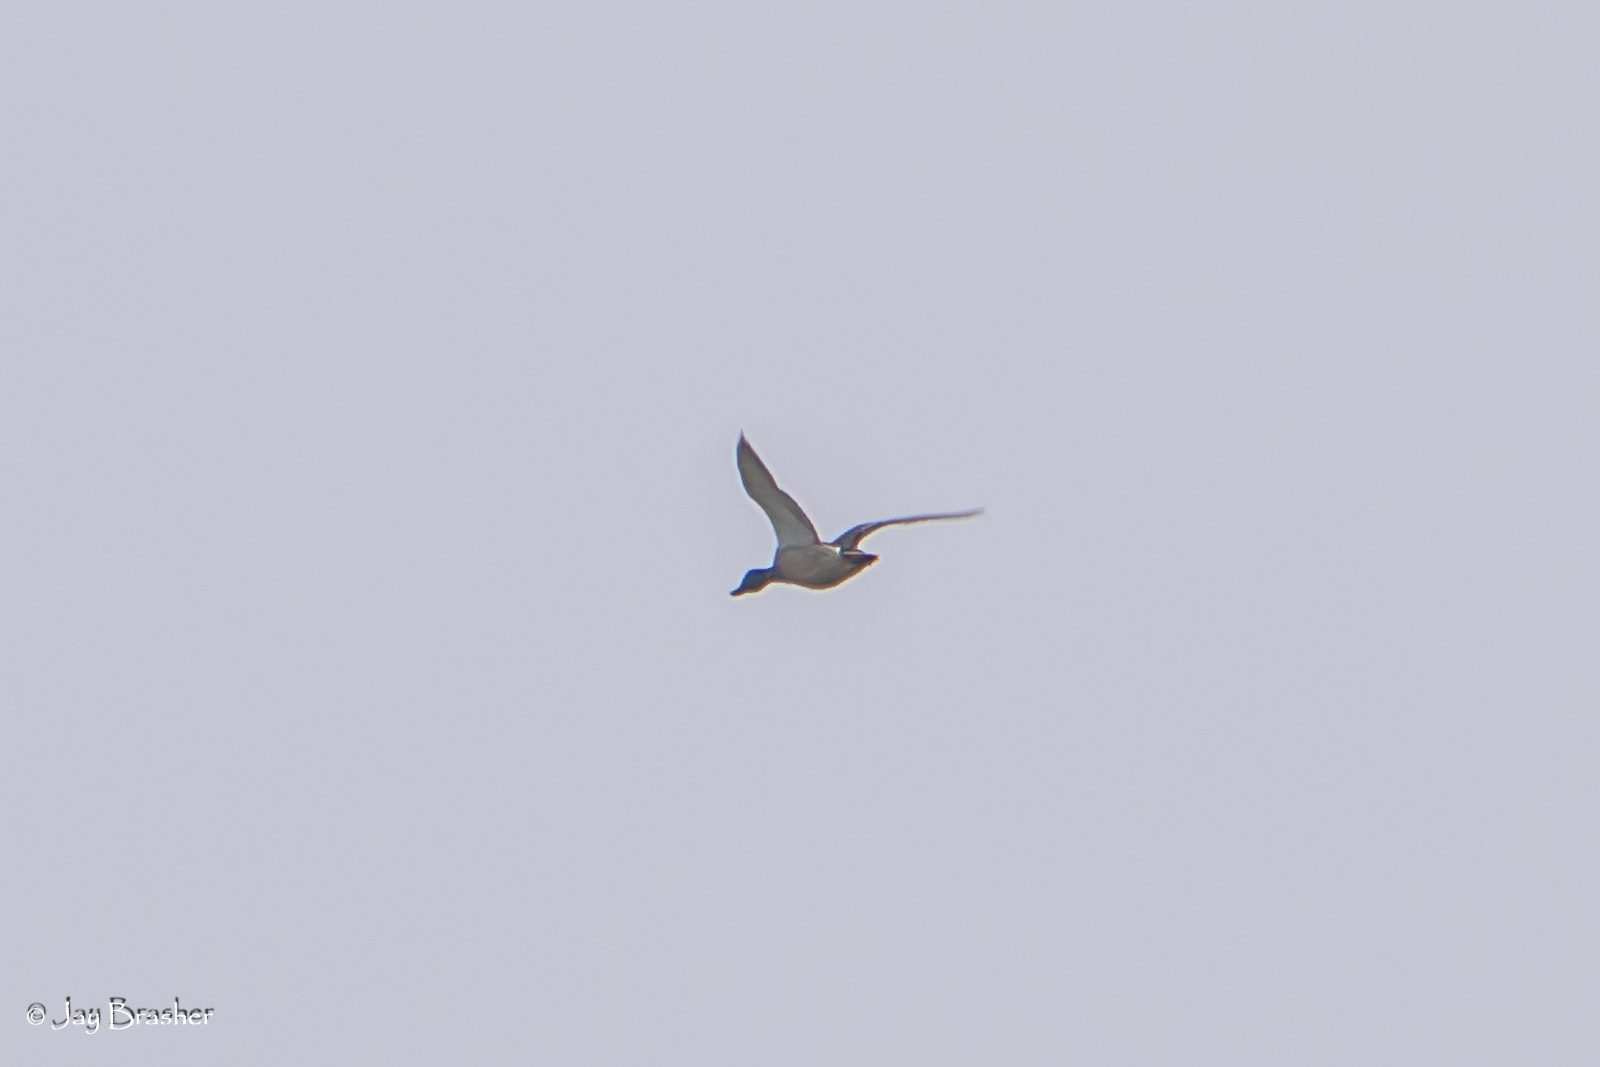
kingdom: Animalia
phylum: Chordata
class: Aves
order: Anseriformes
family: Anatidae
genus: Anas
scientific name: Anas platyrhynchos
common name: Mallard
